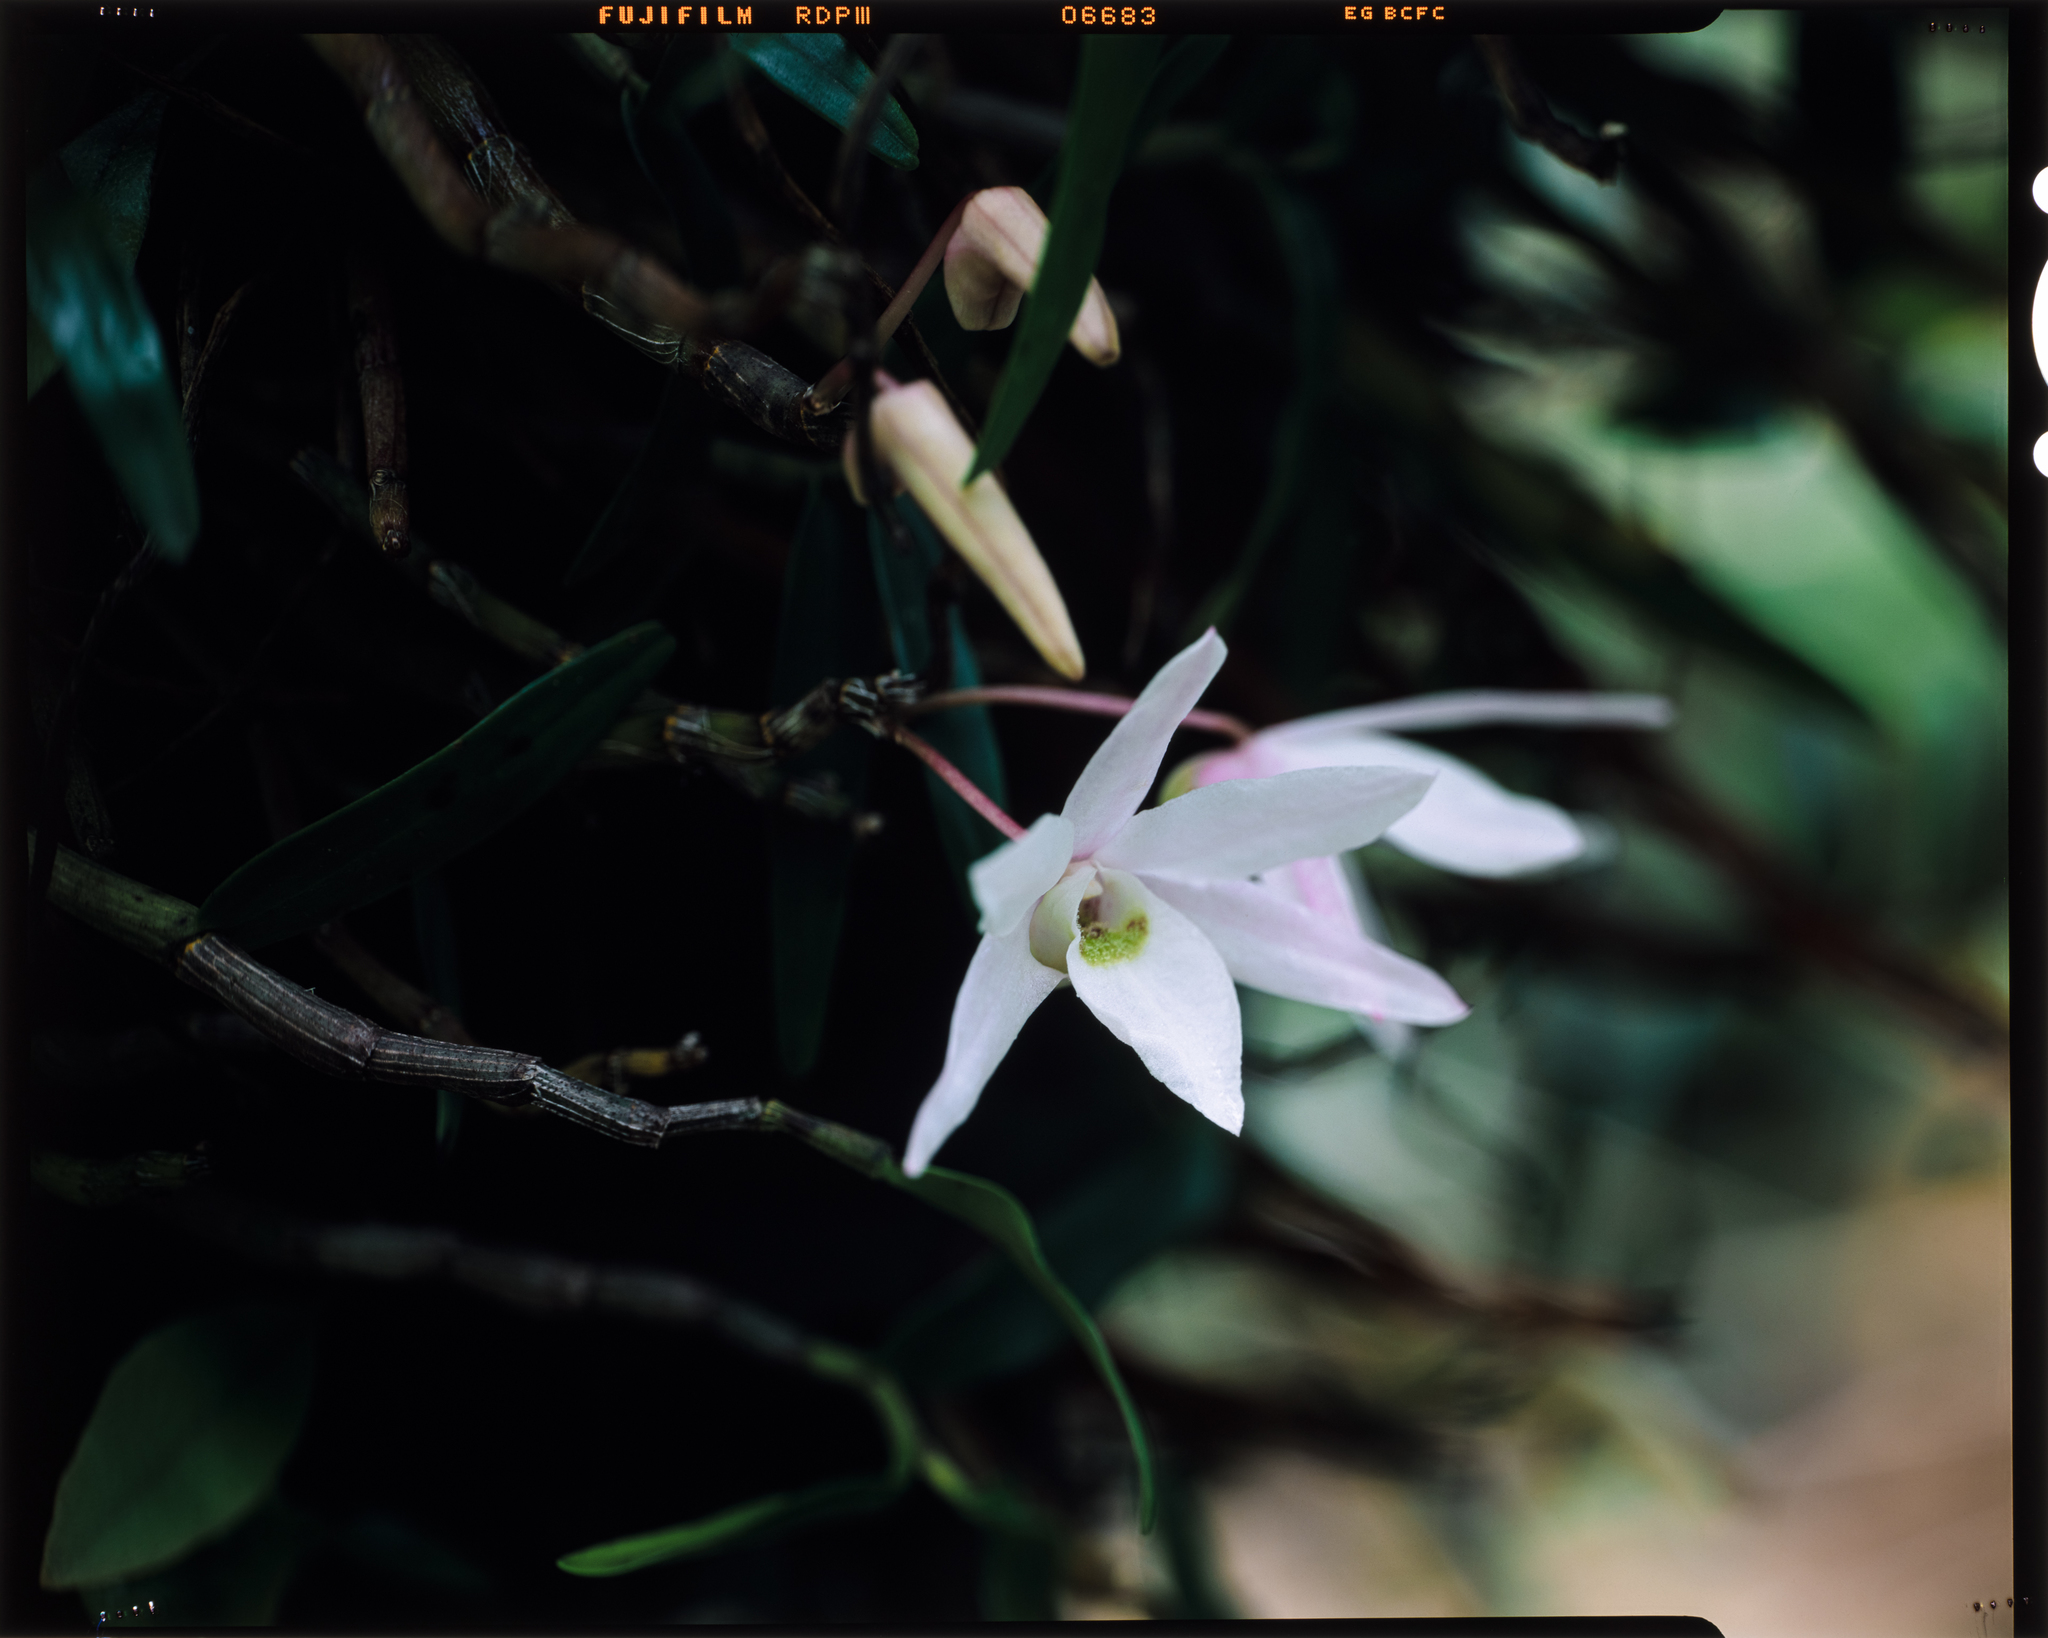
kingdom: Plantae
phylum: Tracheophyta
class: Liliopsida
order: Asparagales
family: Orchidaceae
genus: Dendrobium
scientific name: Dendrobium moniliforme
